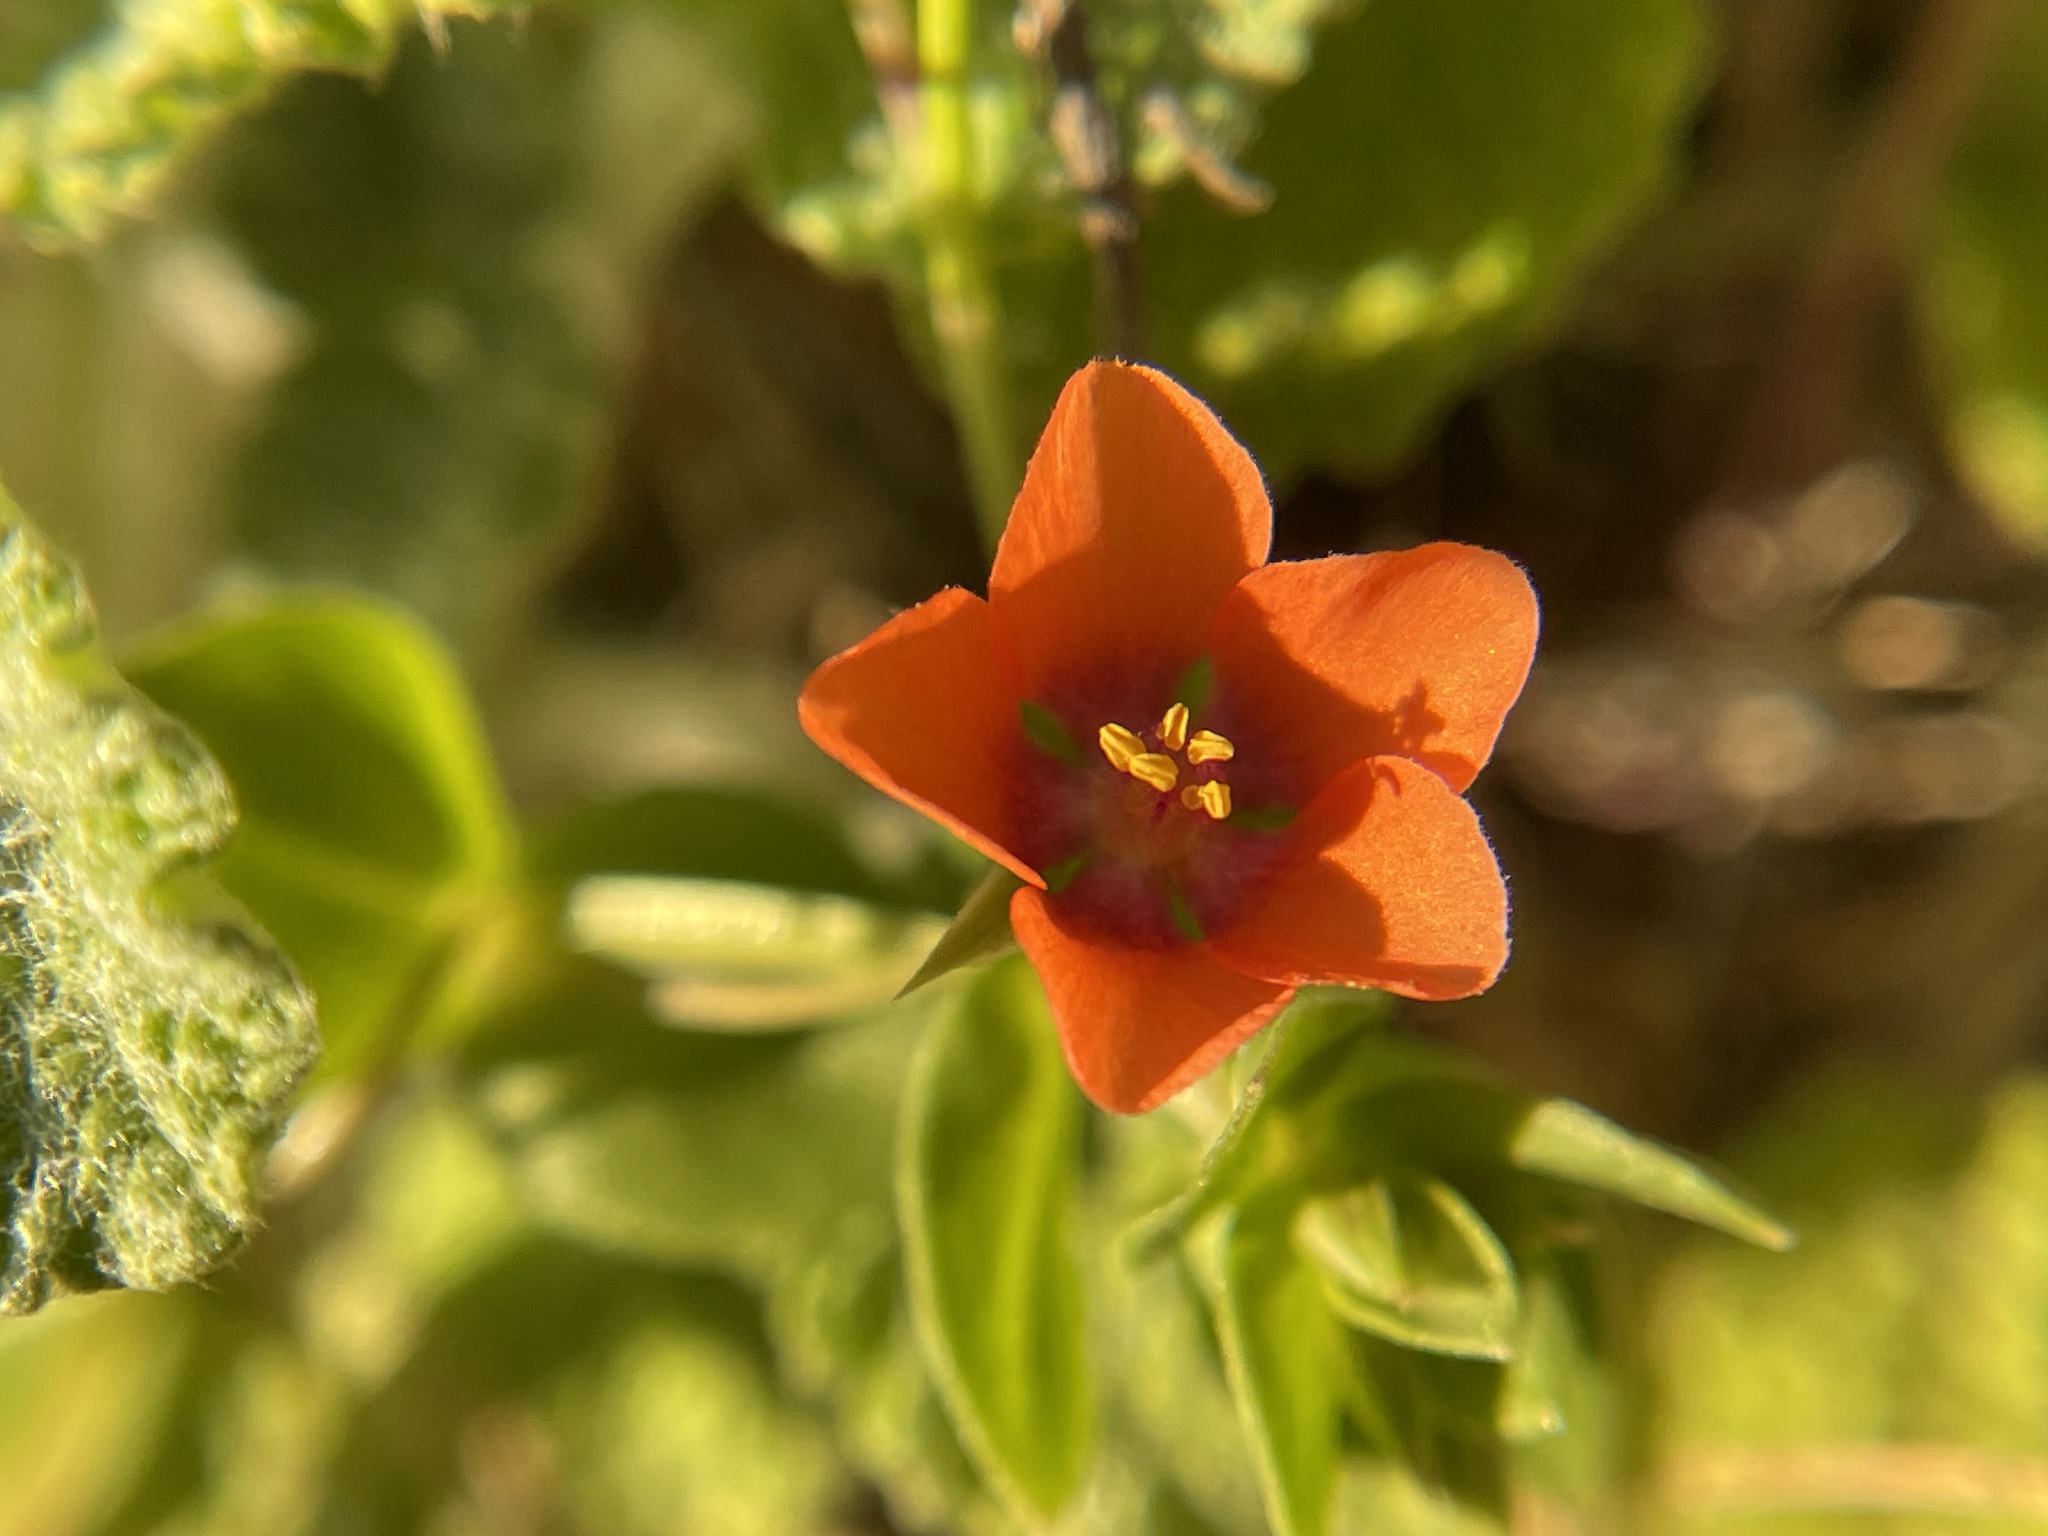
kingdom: Plantae
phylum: Tracheophyta
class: Magnoliopsida
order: Ericales
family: Primulaceae
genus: Lysimachia
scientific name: Lysimachia arvensis
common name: Scarlet pimpernel
